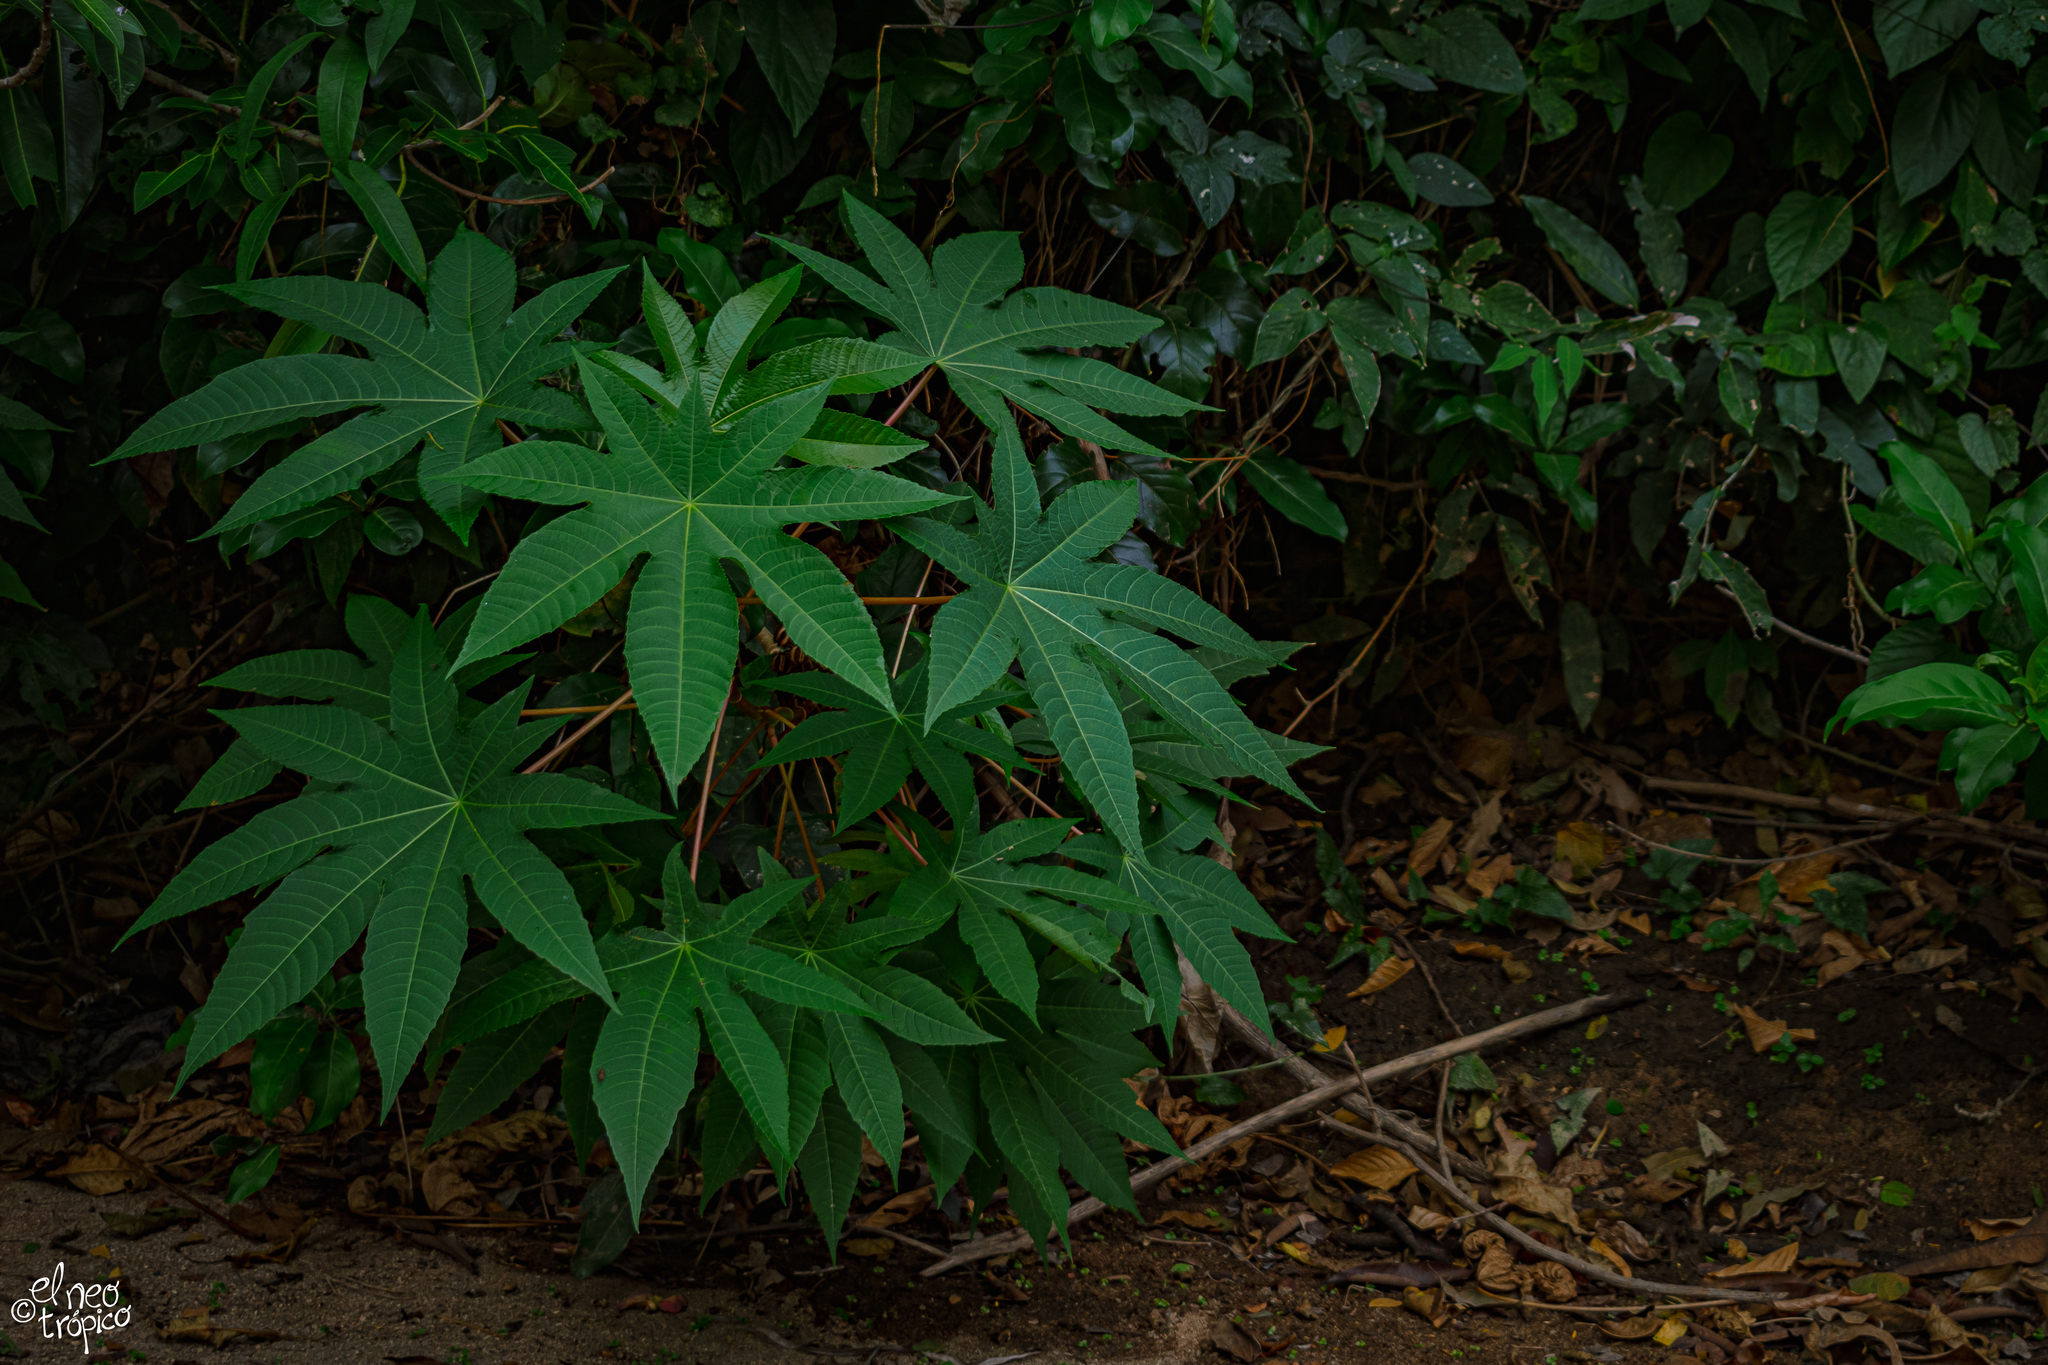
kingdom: Plantae
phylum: Tracheophyta
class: Magnoliopsida
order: Malpighiales
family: Euphorbiaceae
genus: Ricinus
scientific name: Ricinus communis
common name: Castor-oil-plant
